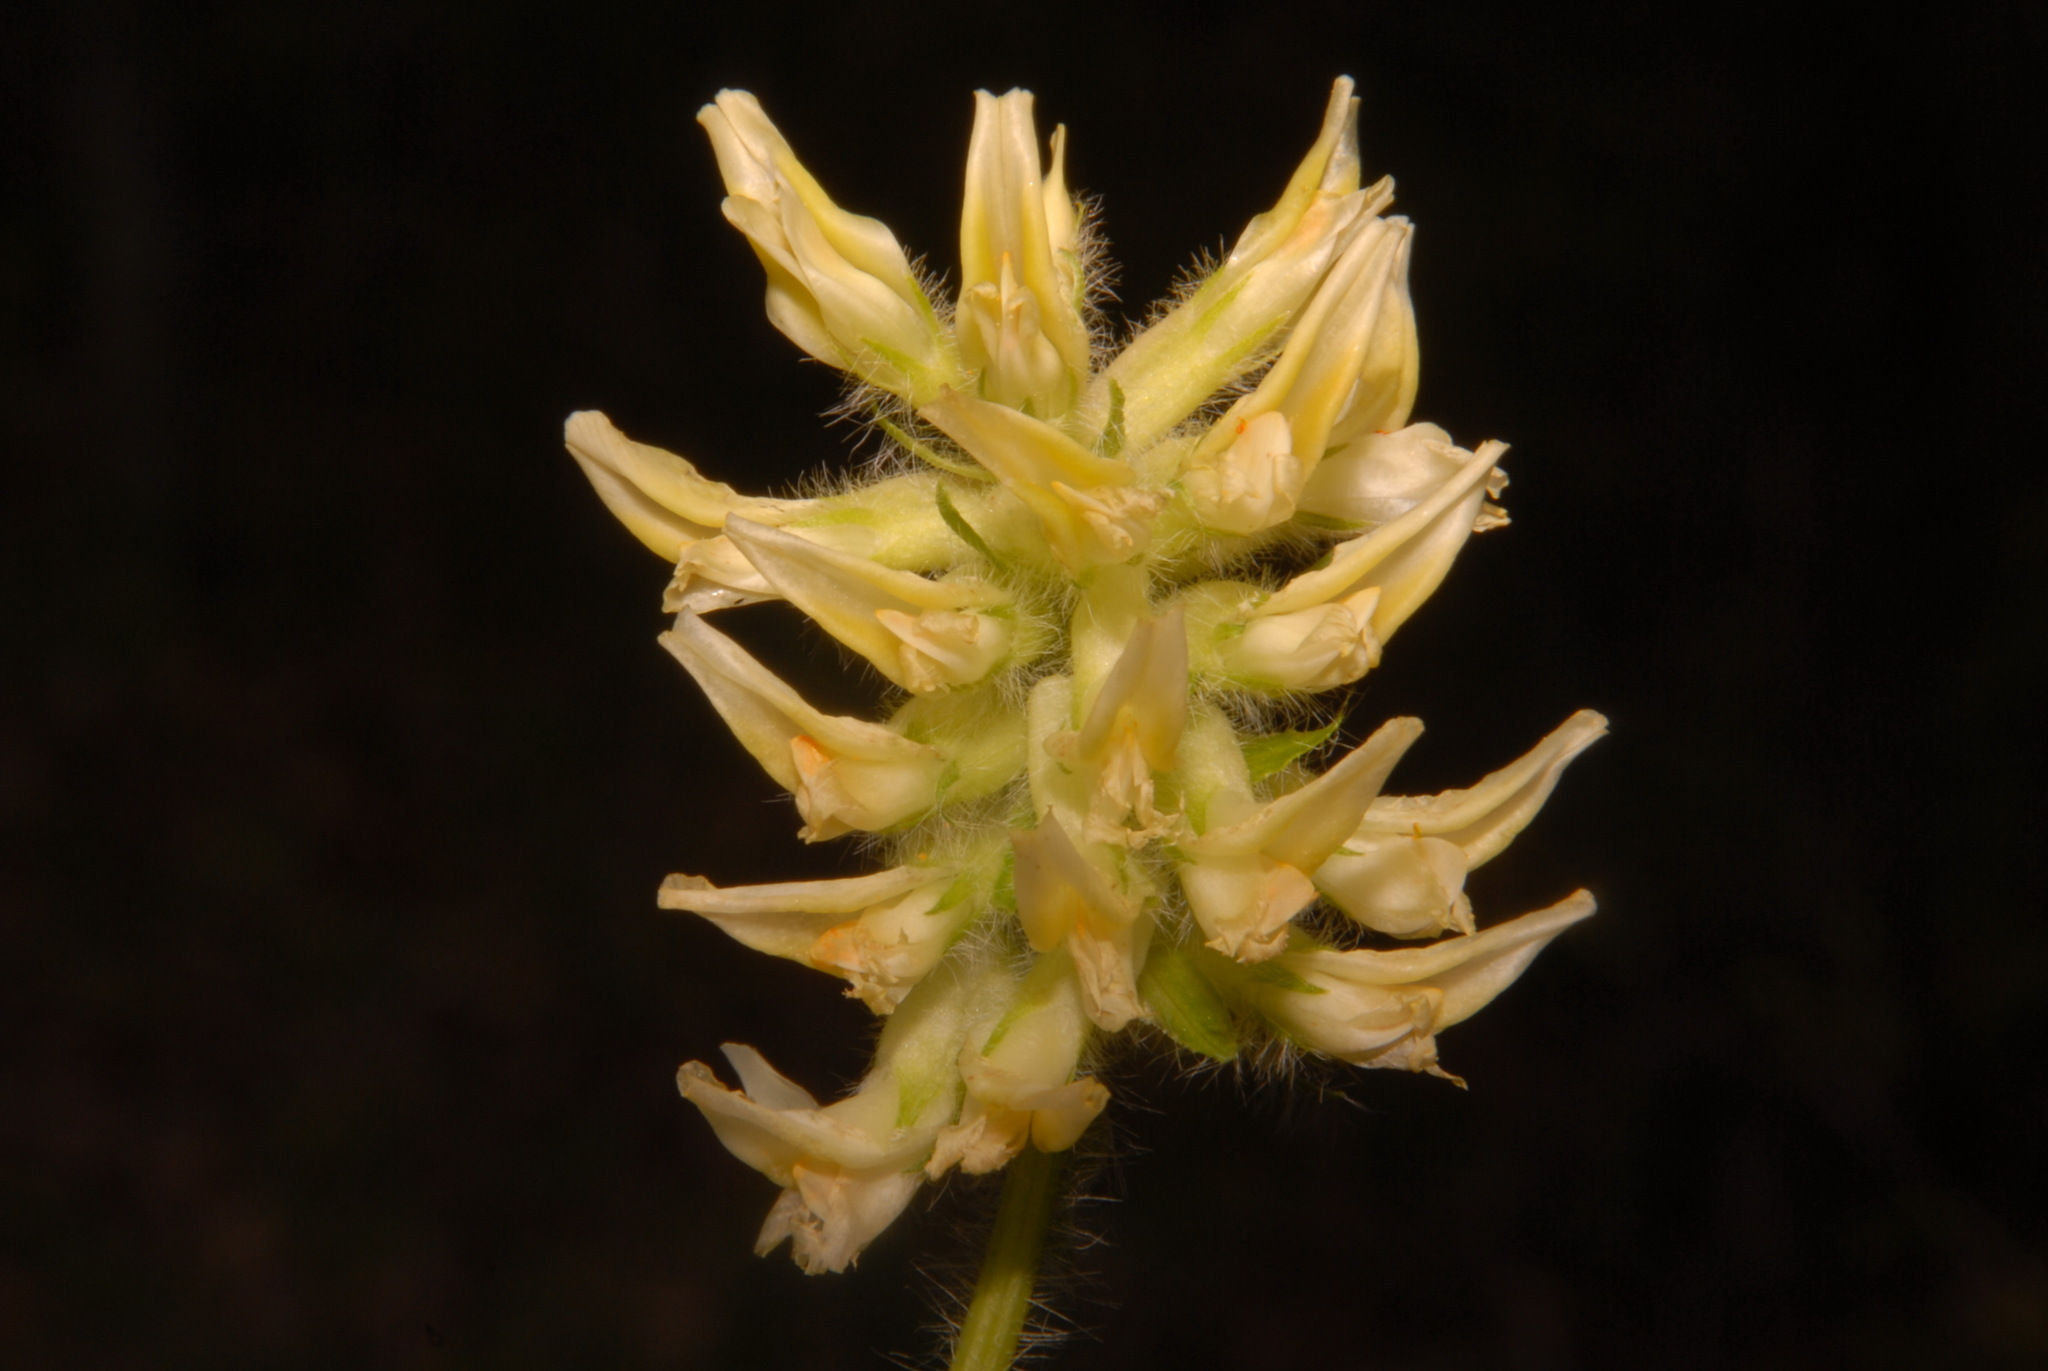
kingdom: Plantae
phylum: Tracheophyta
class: Magnoliopsida
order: Fabales
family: Fabaceae
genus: Astragalus
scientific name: Astragalus tennesseensis
